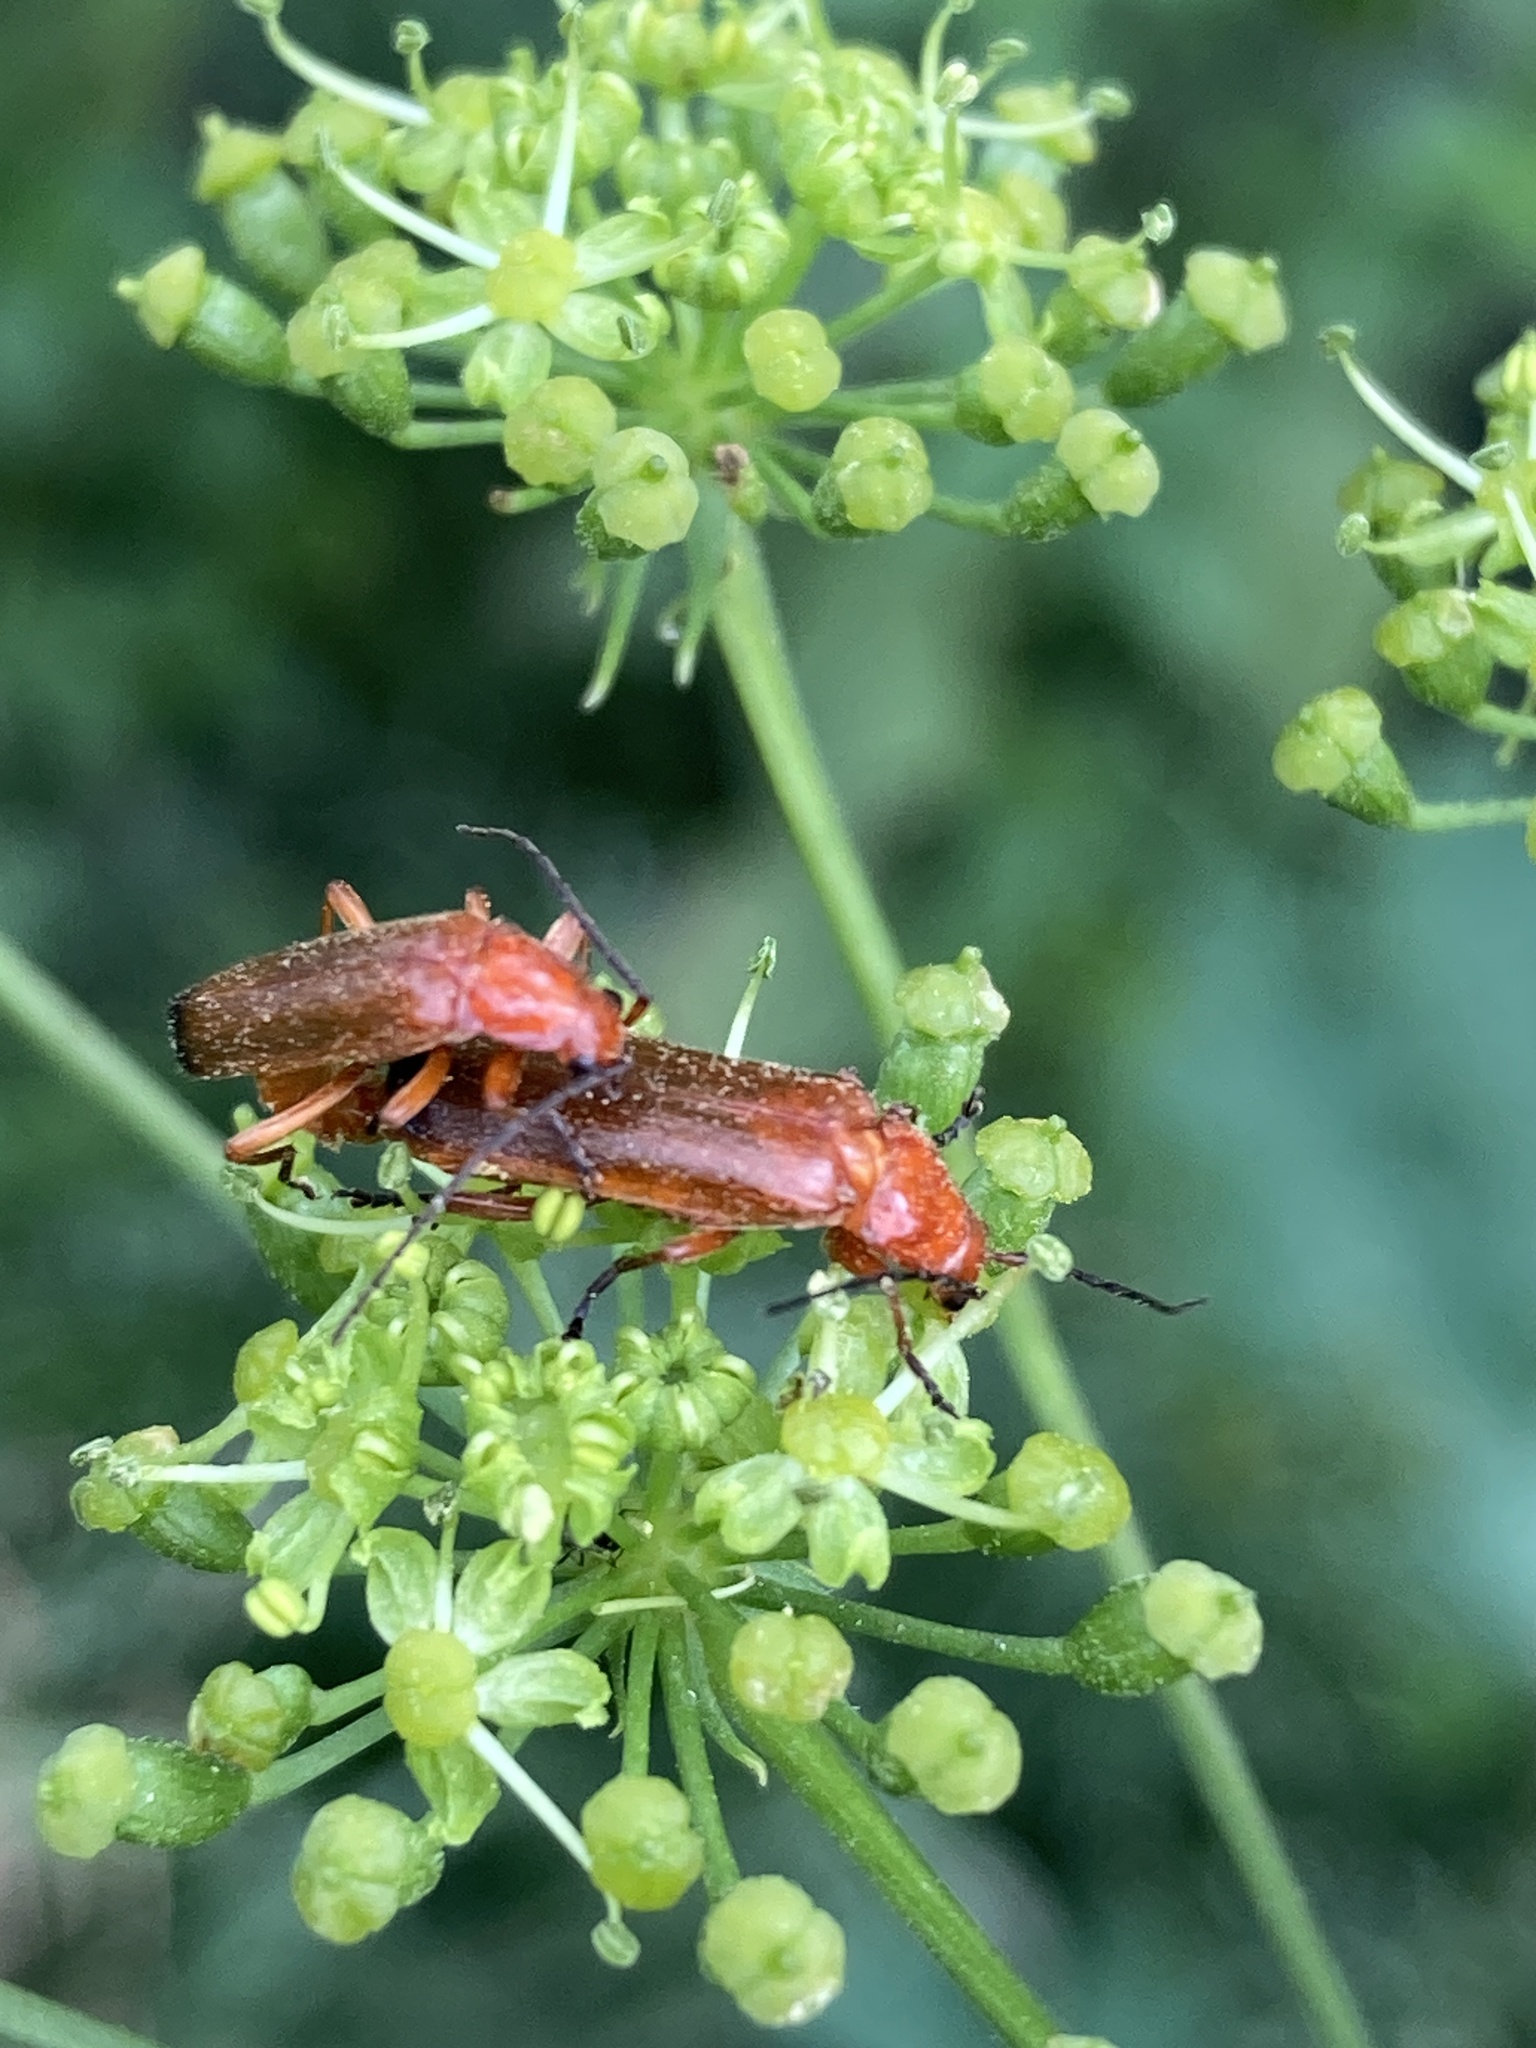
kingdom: Animalia
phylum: Arthropoda
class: Insecta
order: Coleoptera
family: Cantharidae
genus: Rhagonycha
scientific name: Rhagonycha fulva
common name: Common red soldier beetle
